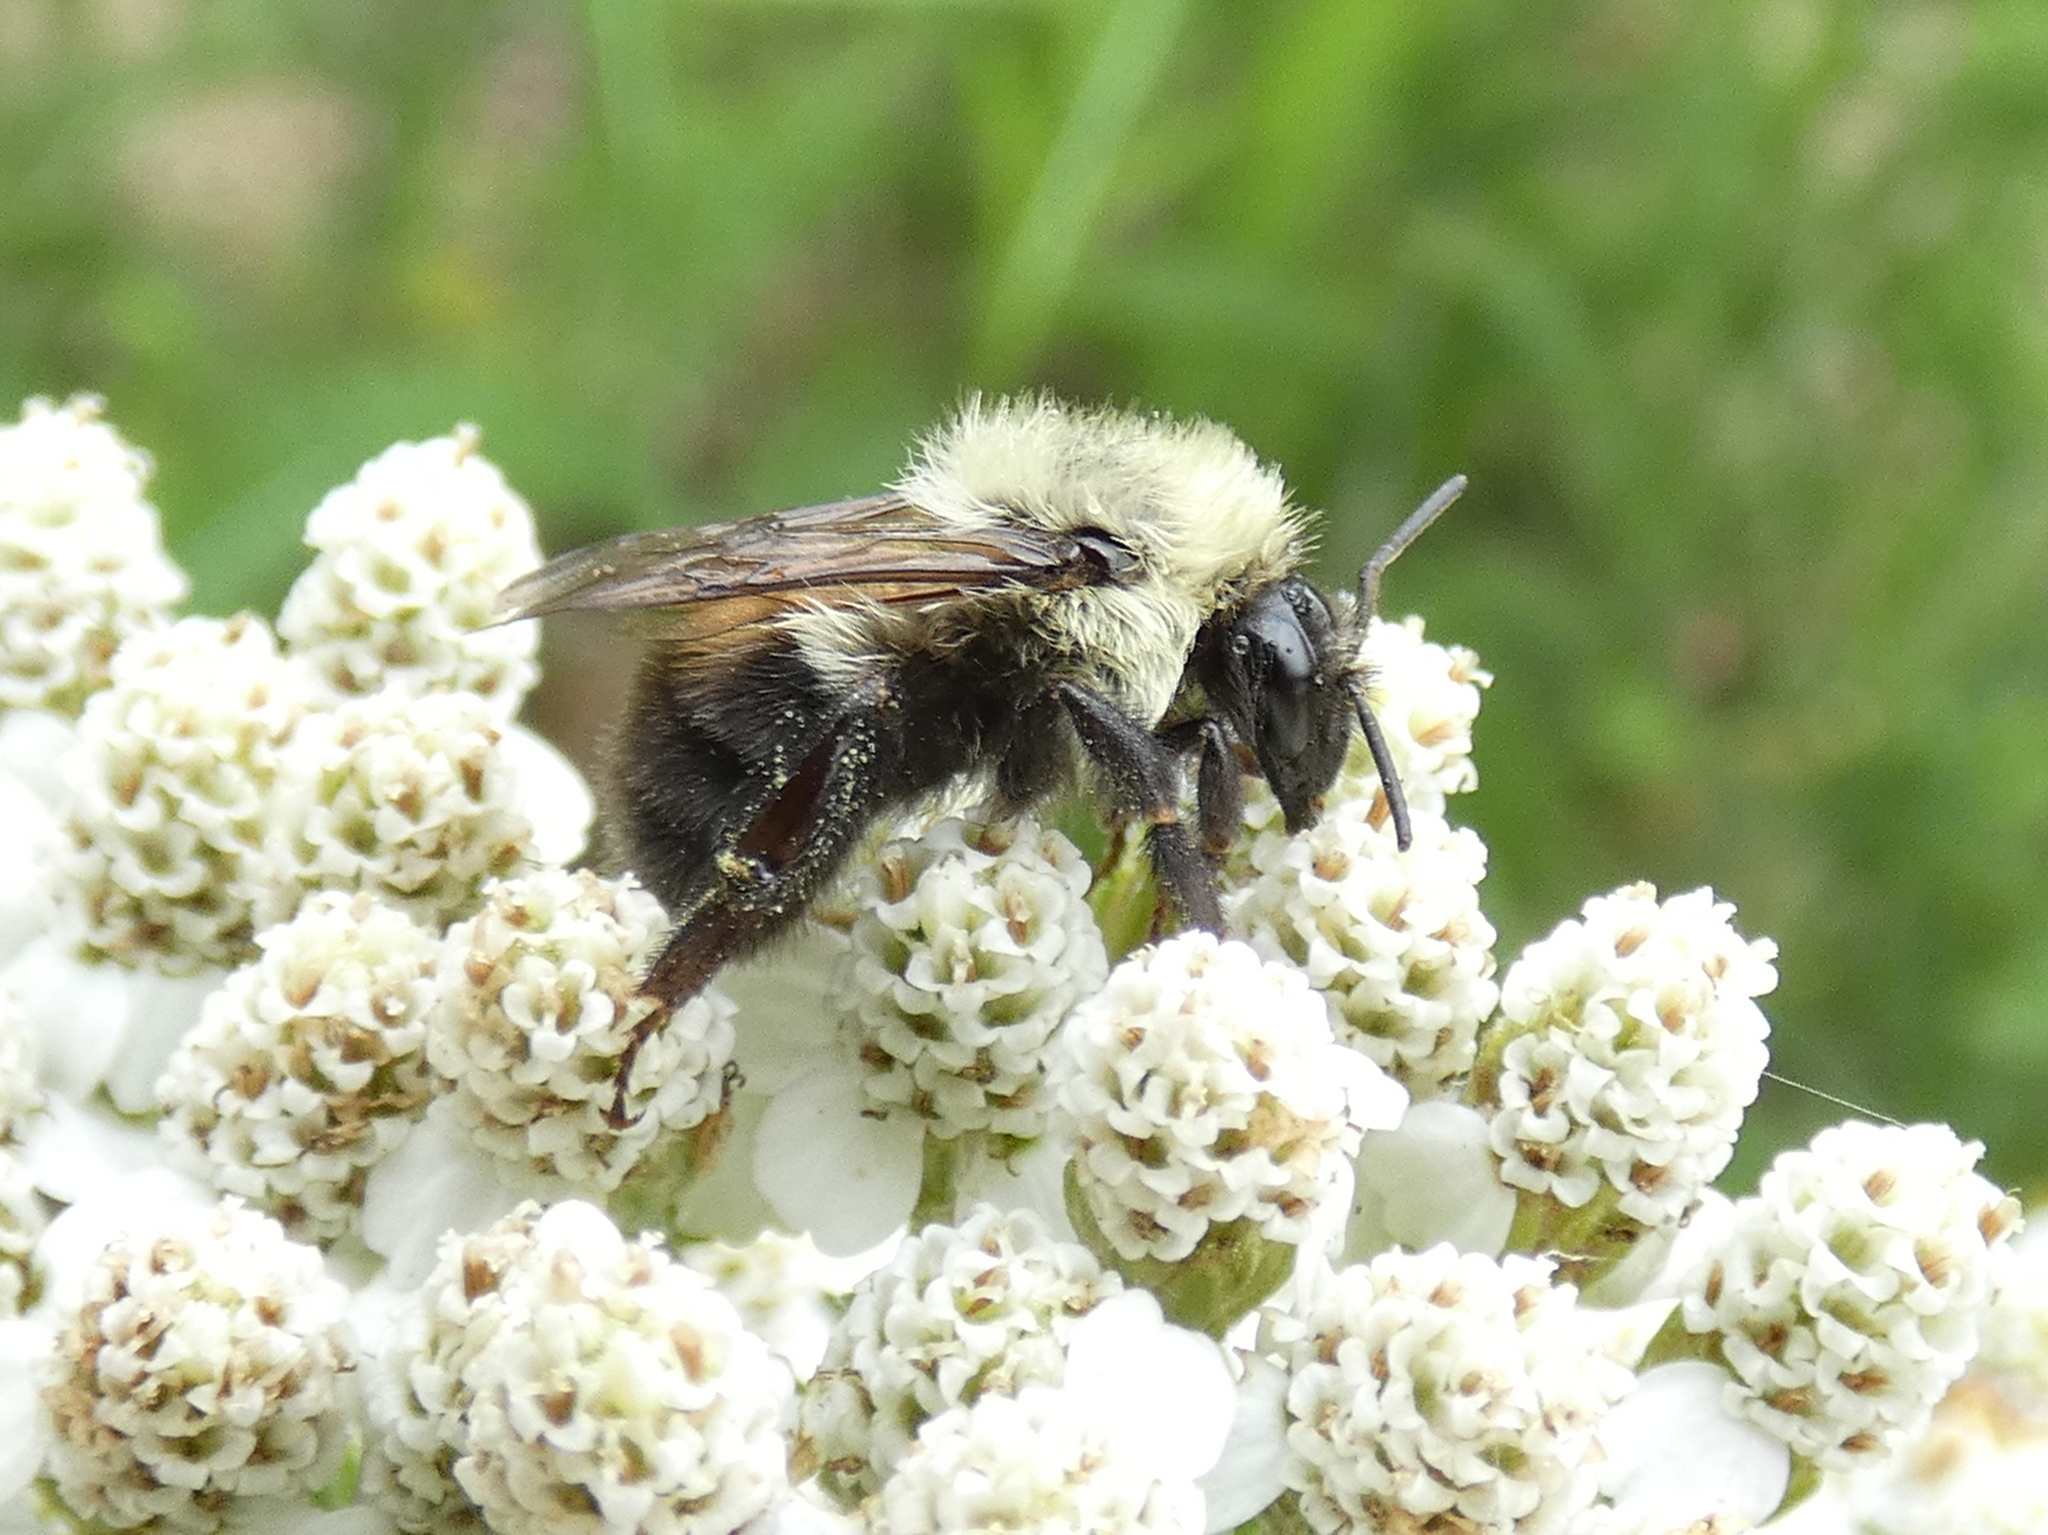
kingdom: Animalia
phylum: Arthropoda
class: Insecta
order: Hymenoptera
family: Apidae
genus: Bombus
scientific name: Bombus bimaculatus
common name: Two-spotted bumble bee
